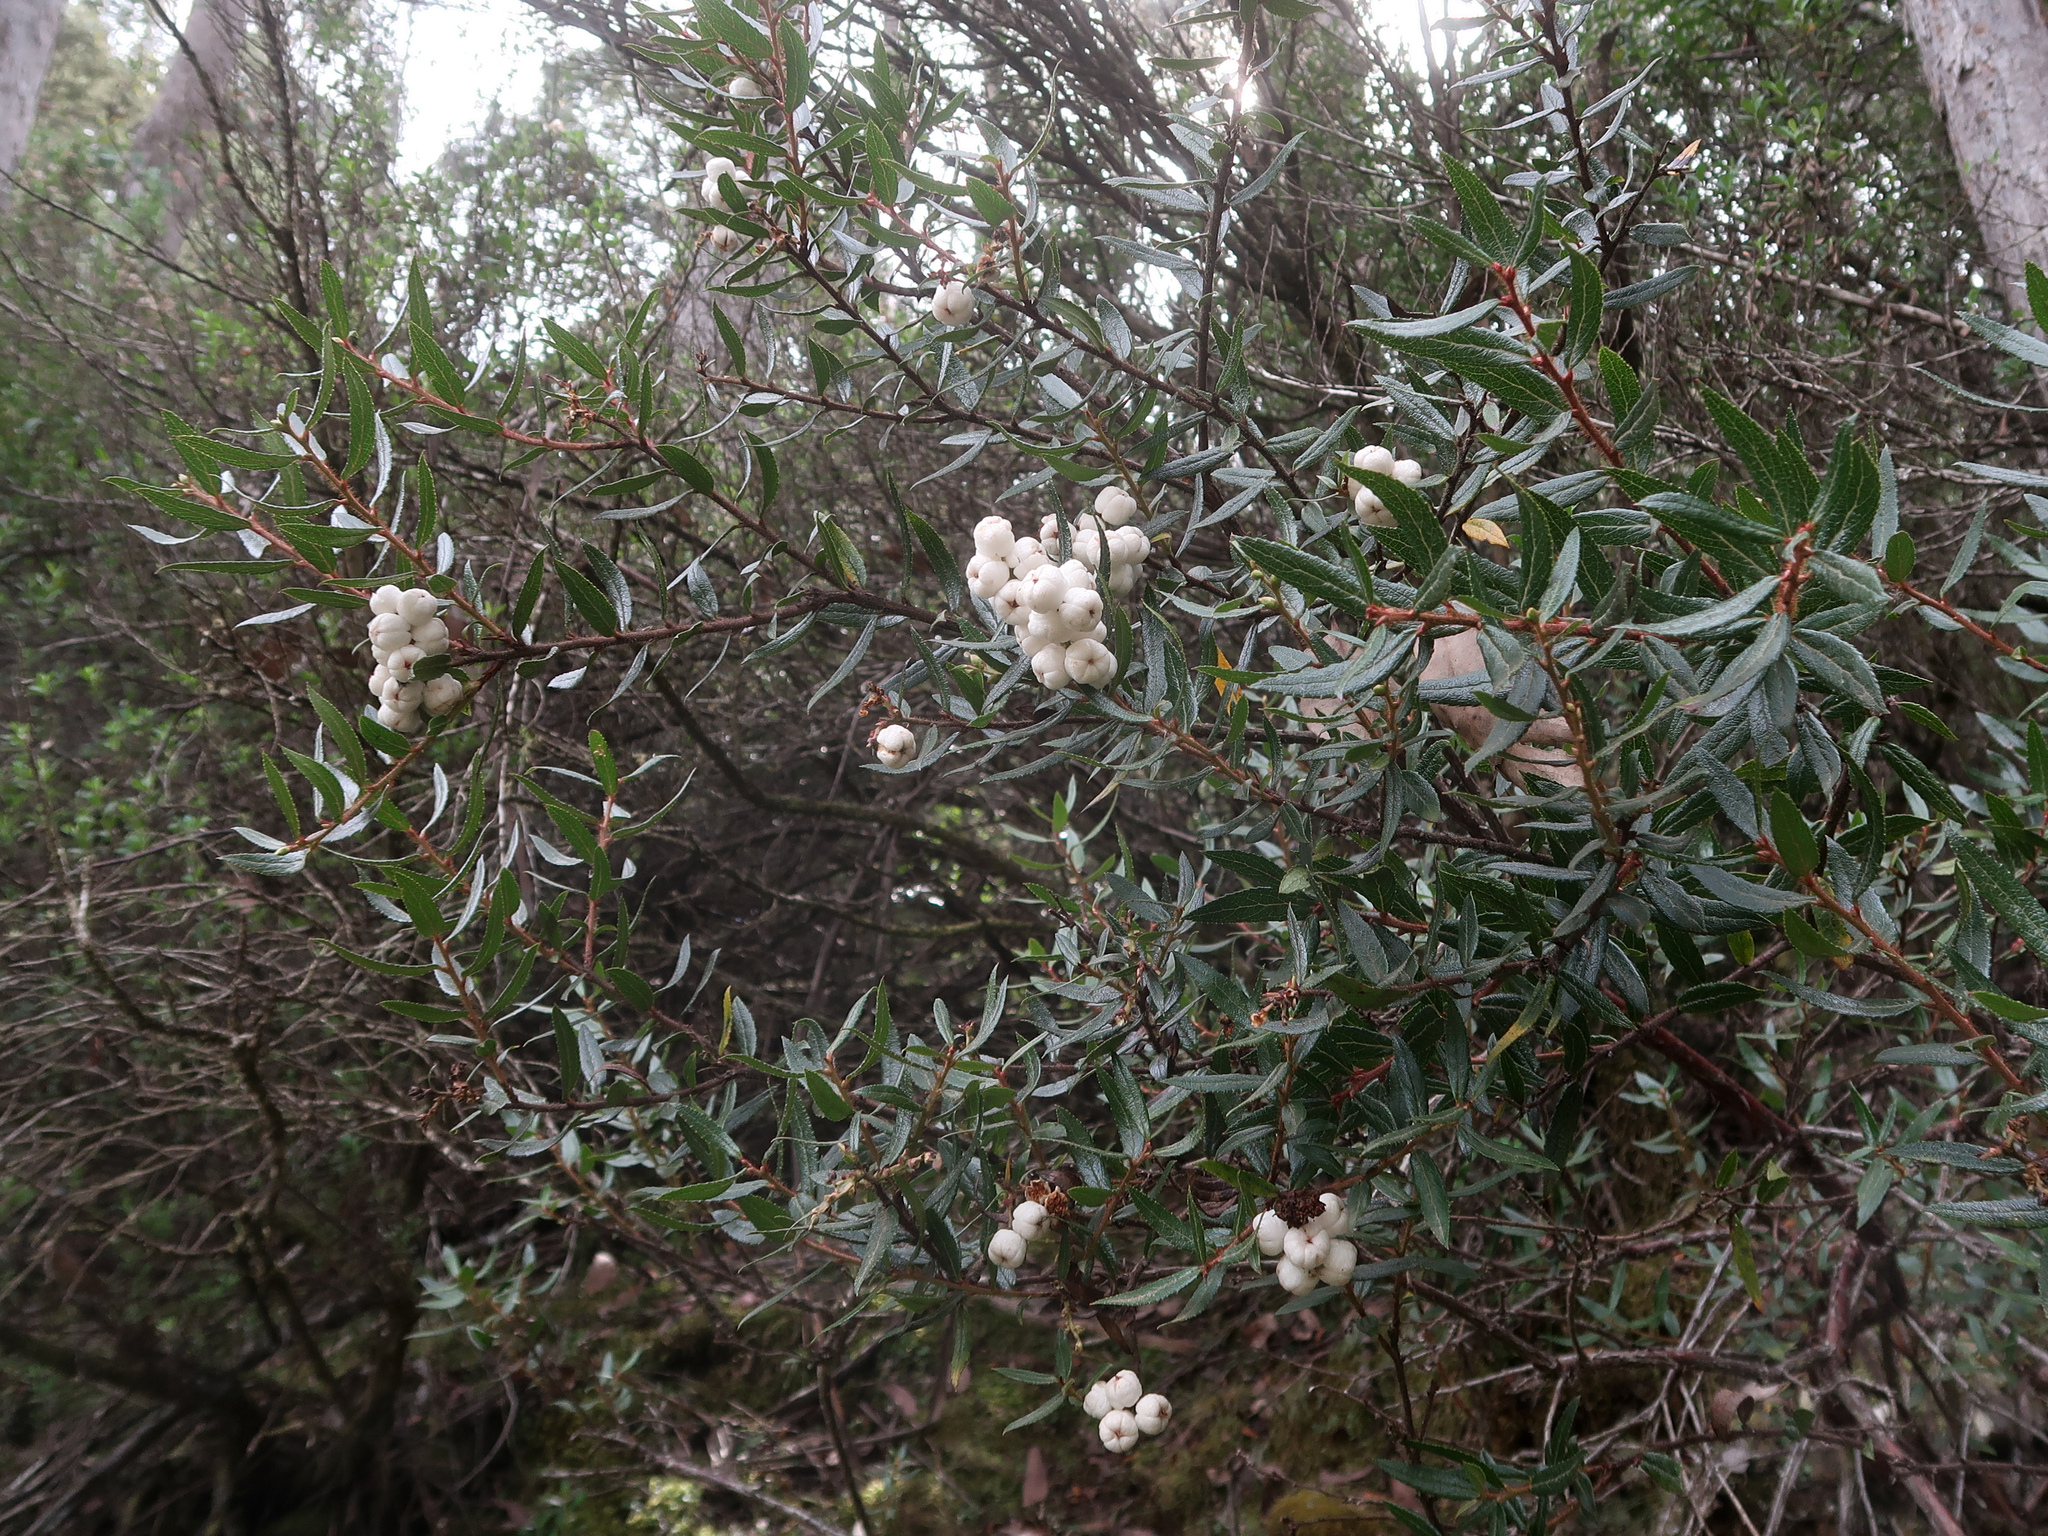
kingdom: Plantae
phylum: Tracheophyta
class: Magnoliopsida
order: Ericales
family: Ericaceae
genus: Gaultheria
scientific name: Gaultheria hispida
